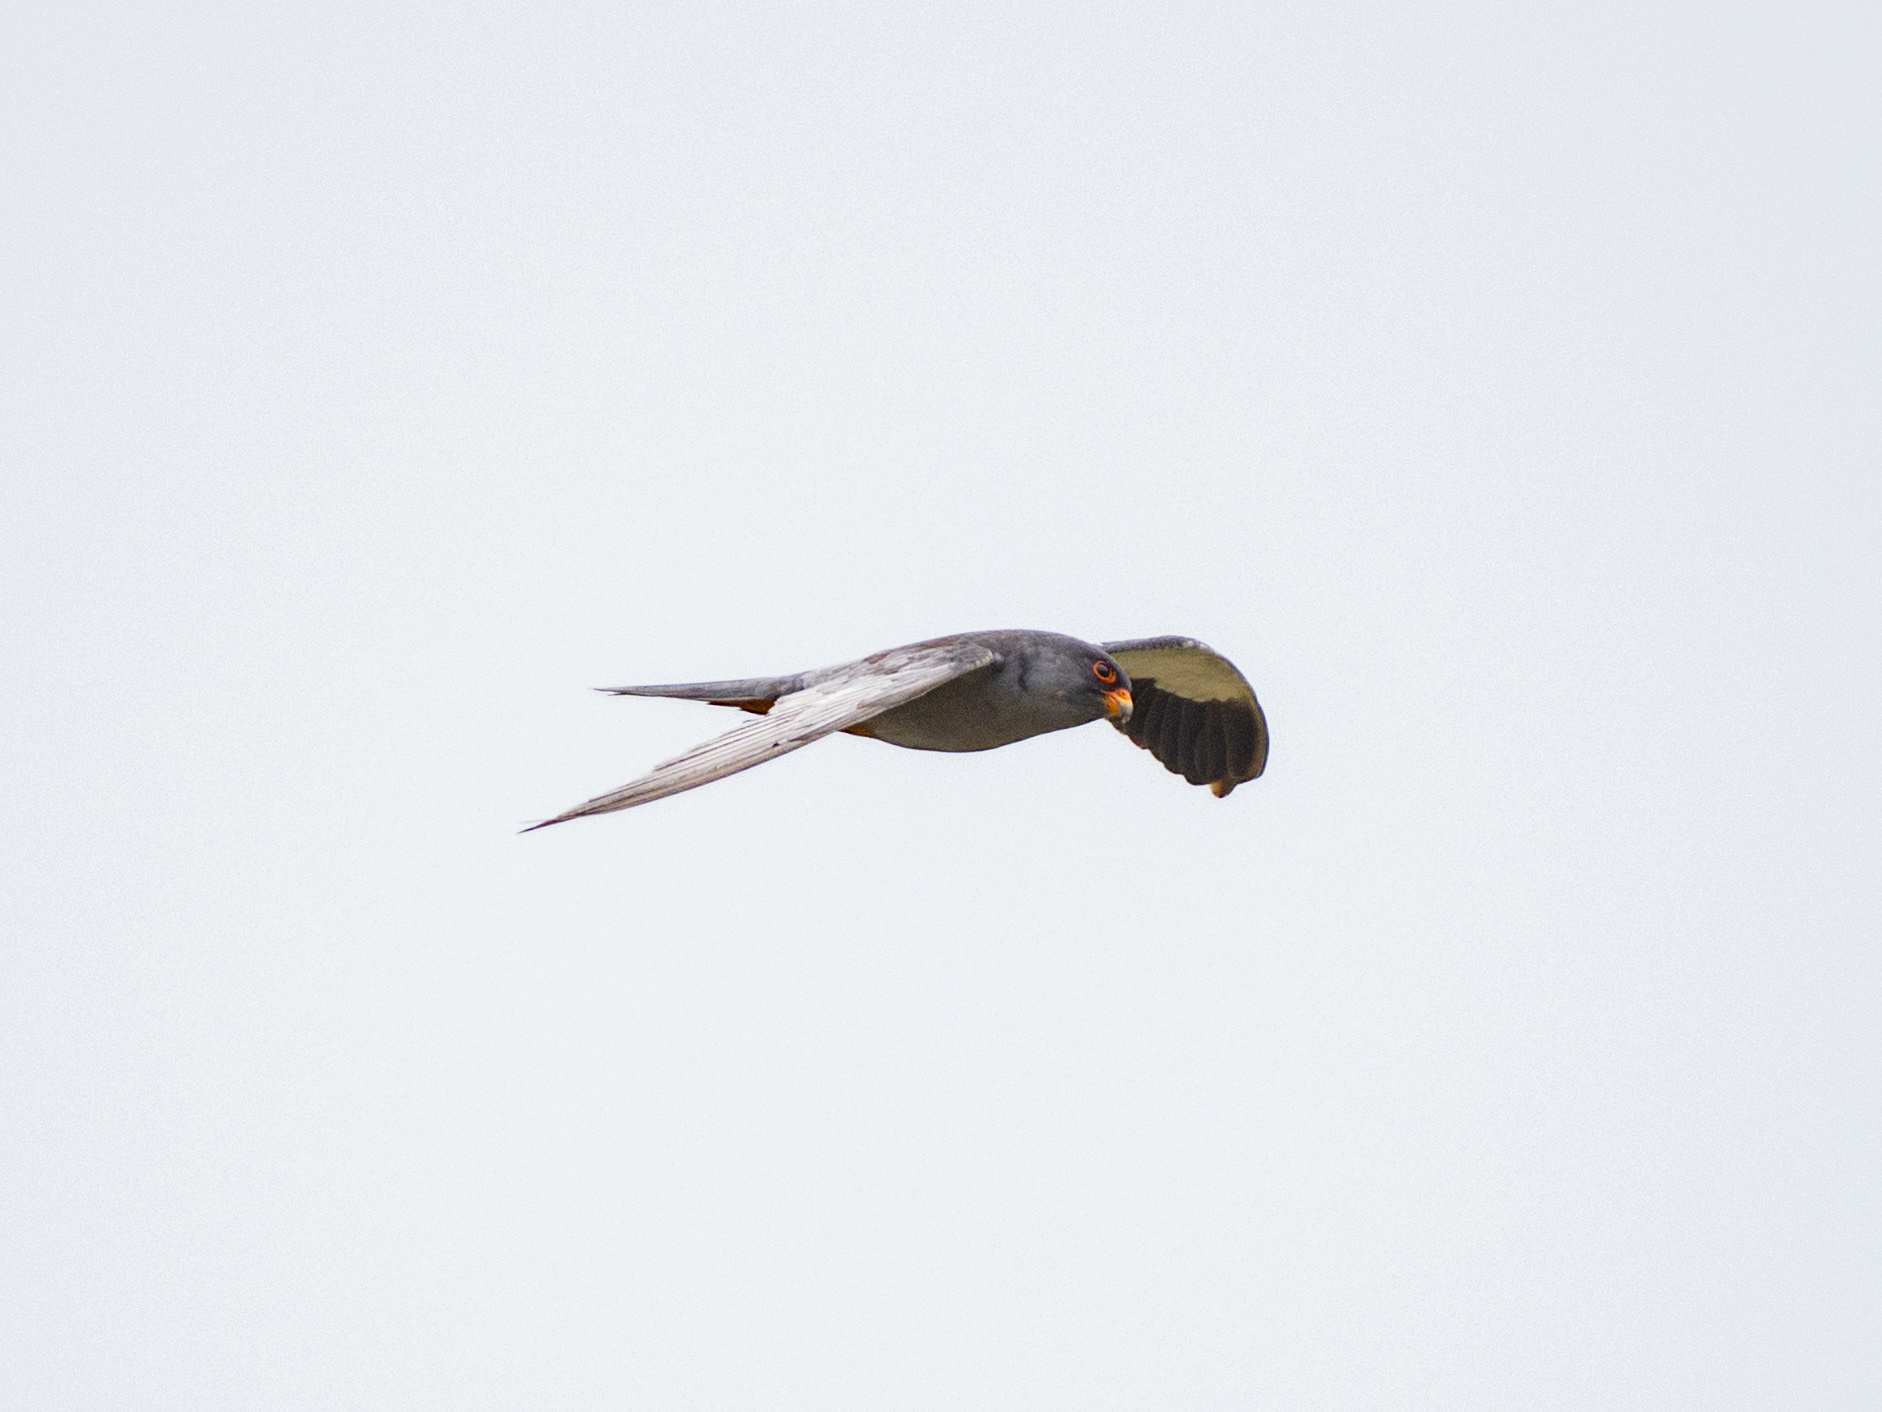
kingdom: Animalia
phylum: Chordata
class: Aves
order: Falconiformes
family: Falconidae
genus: Falco
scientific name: Falco amurensis
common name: Amur falcon
